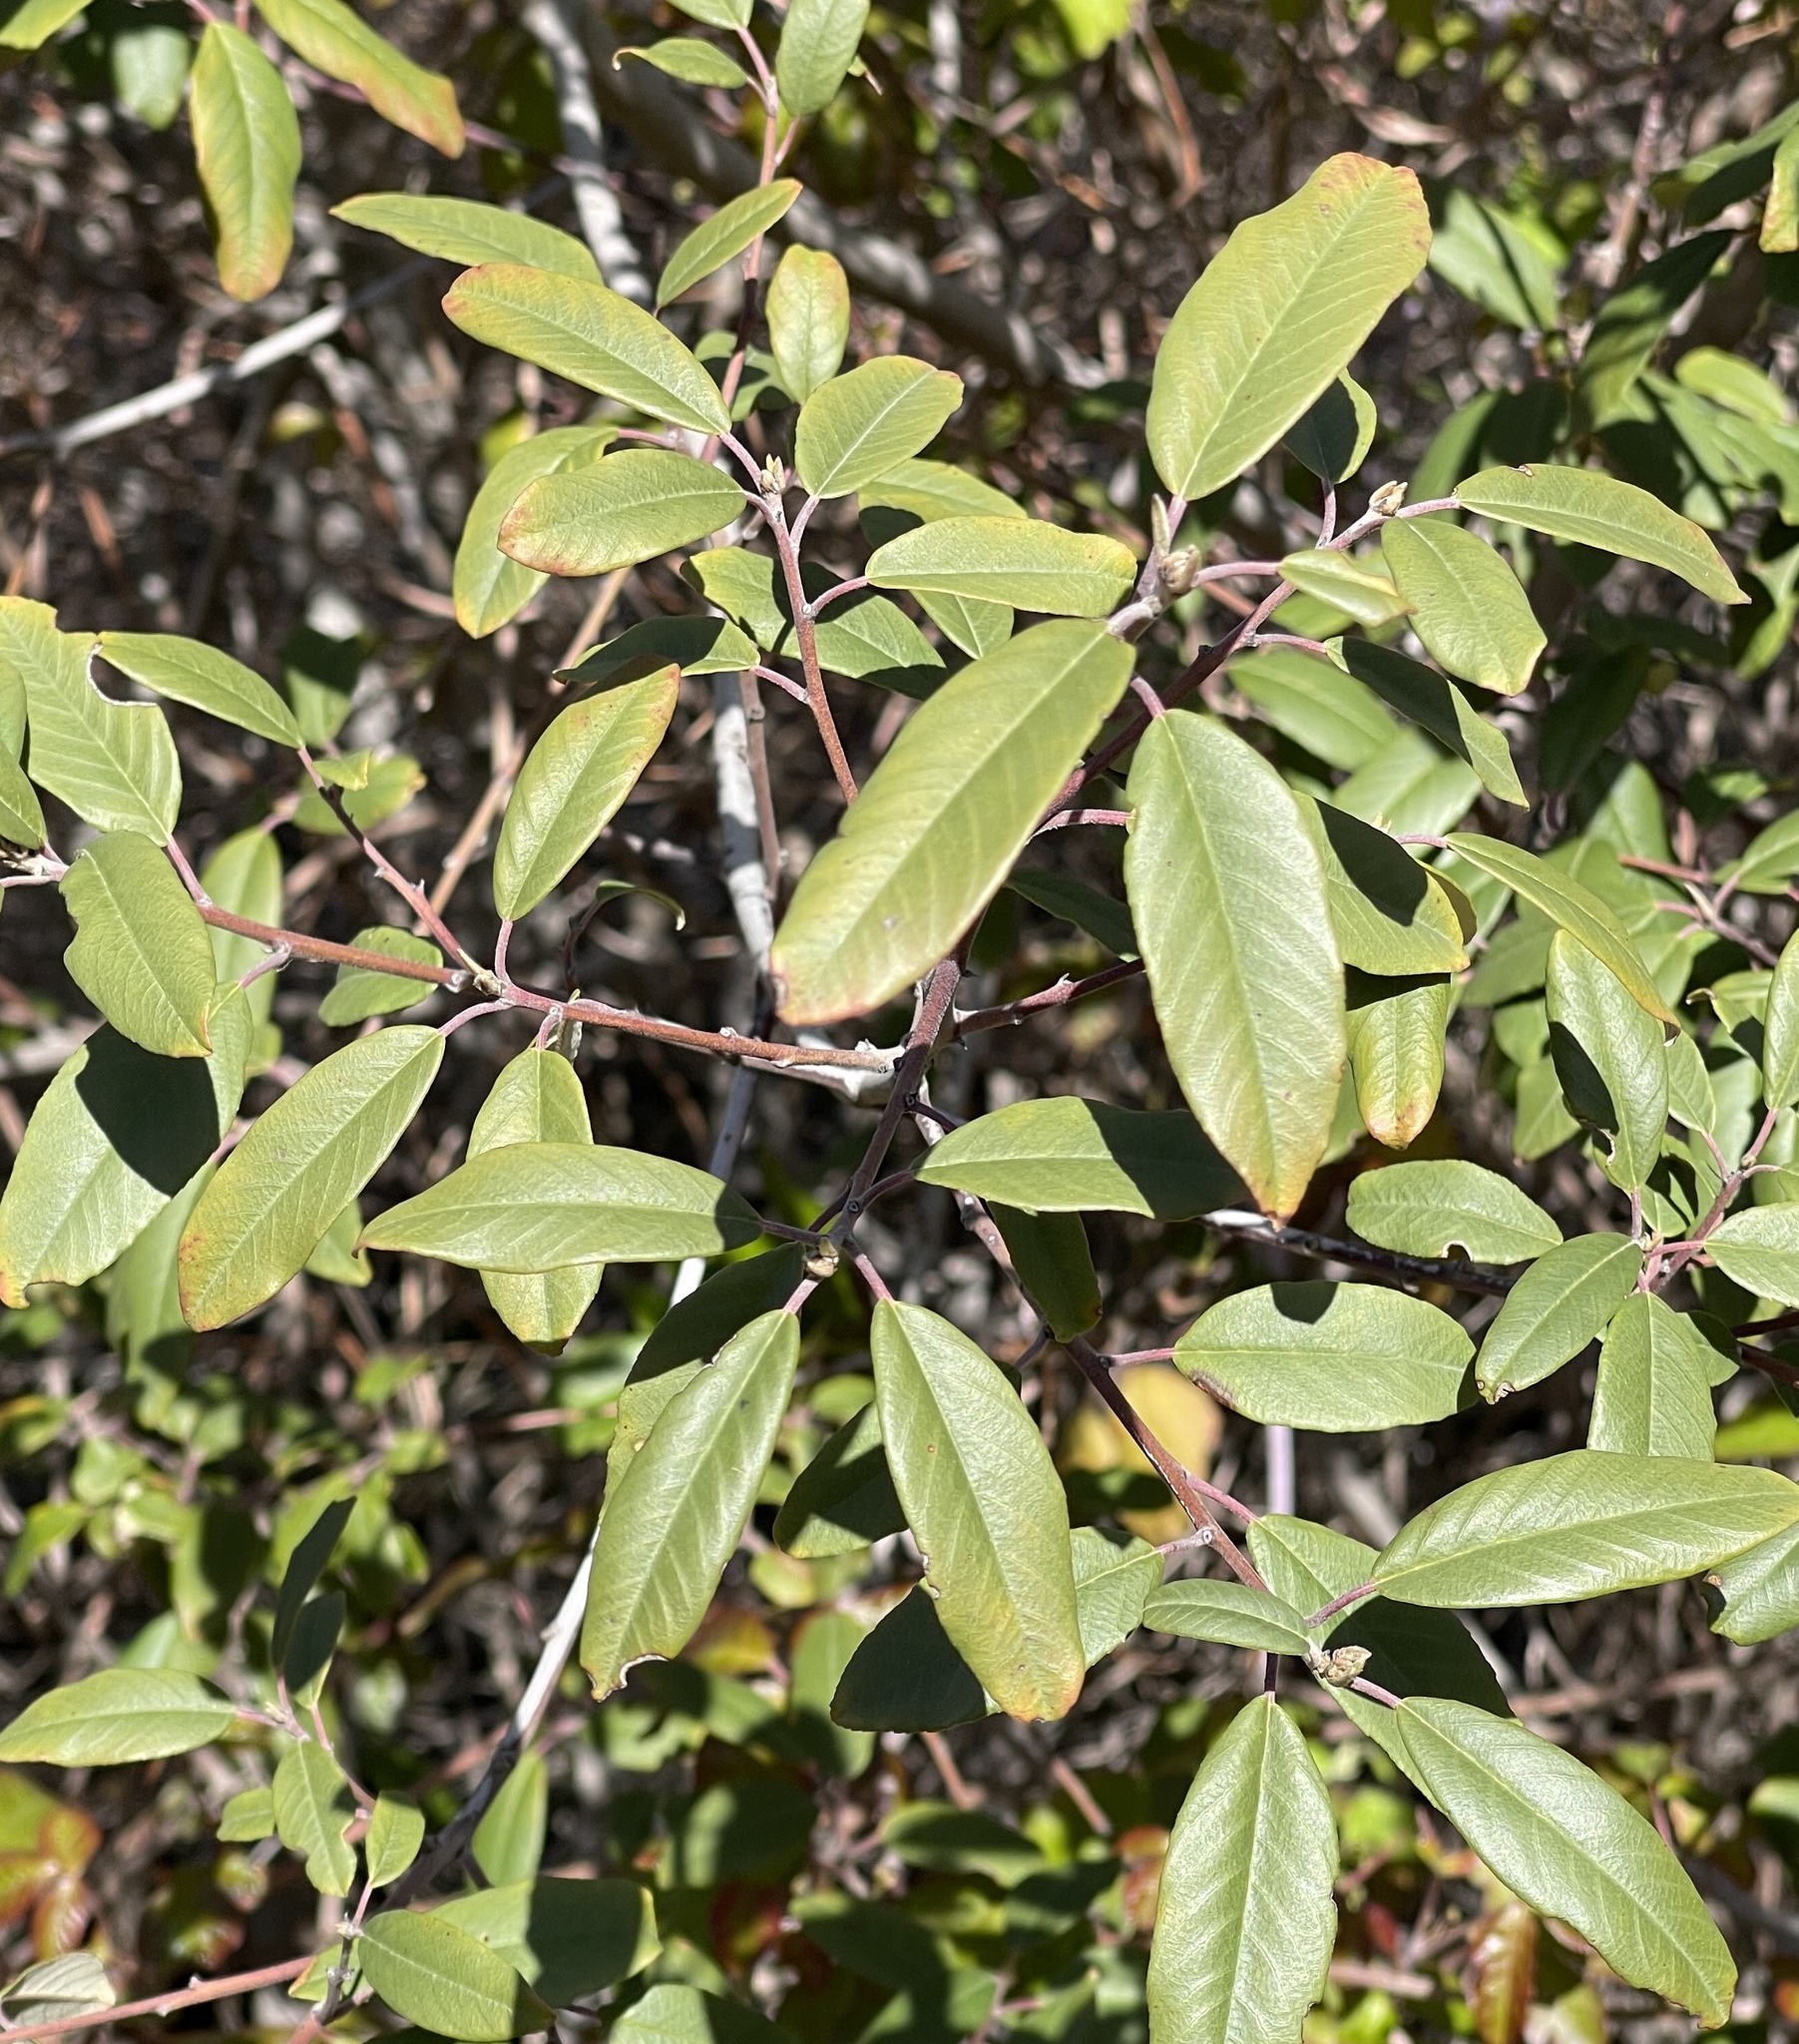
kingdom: Plantae
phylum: Tracheophyta
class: Magnoliopsida
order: Rosales
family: Rhamnaceae
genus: Frangula
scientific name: Frangula californica
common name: California buckthorn
